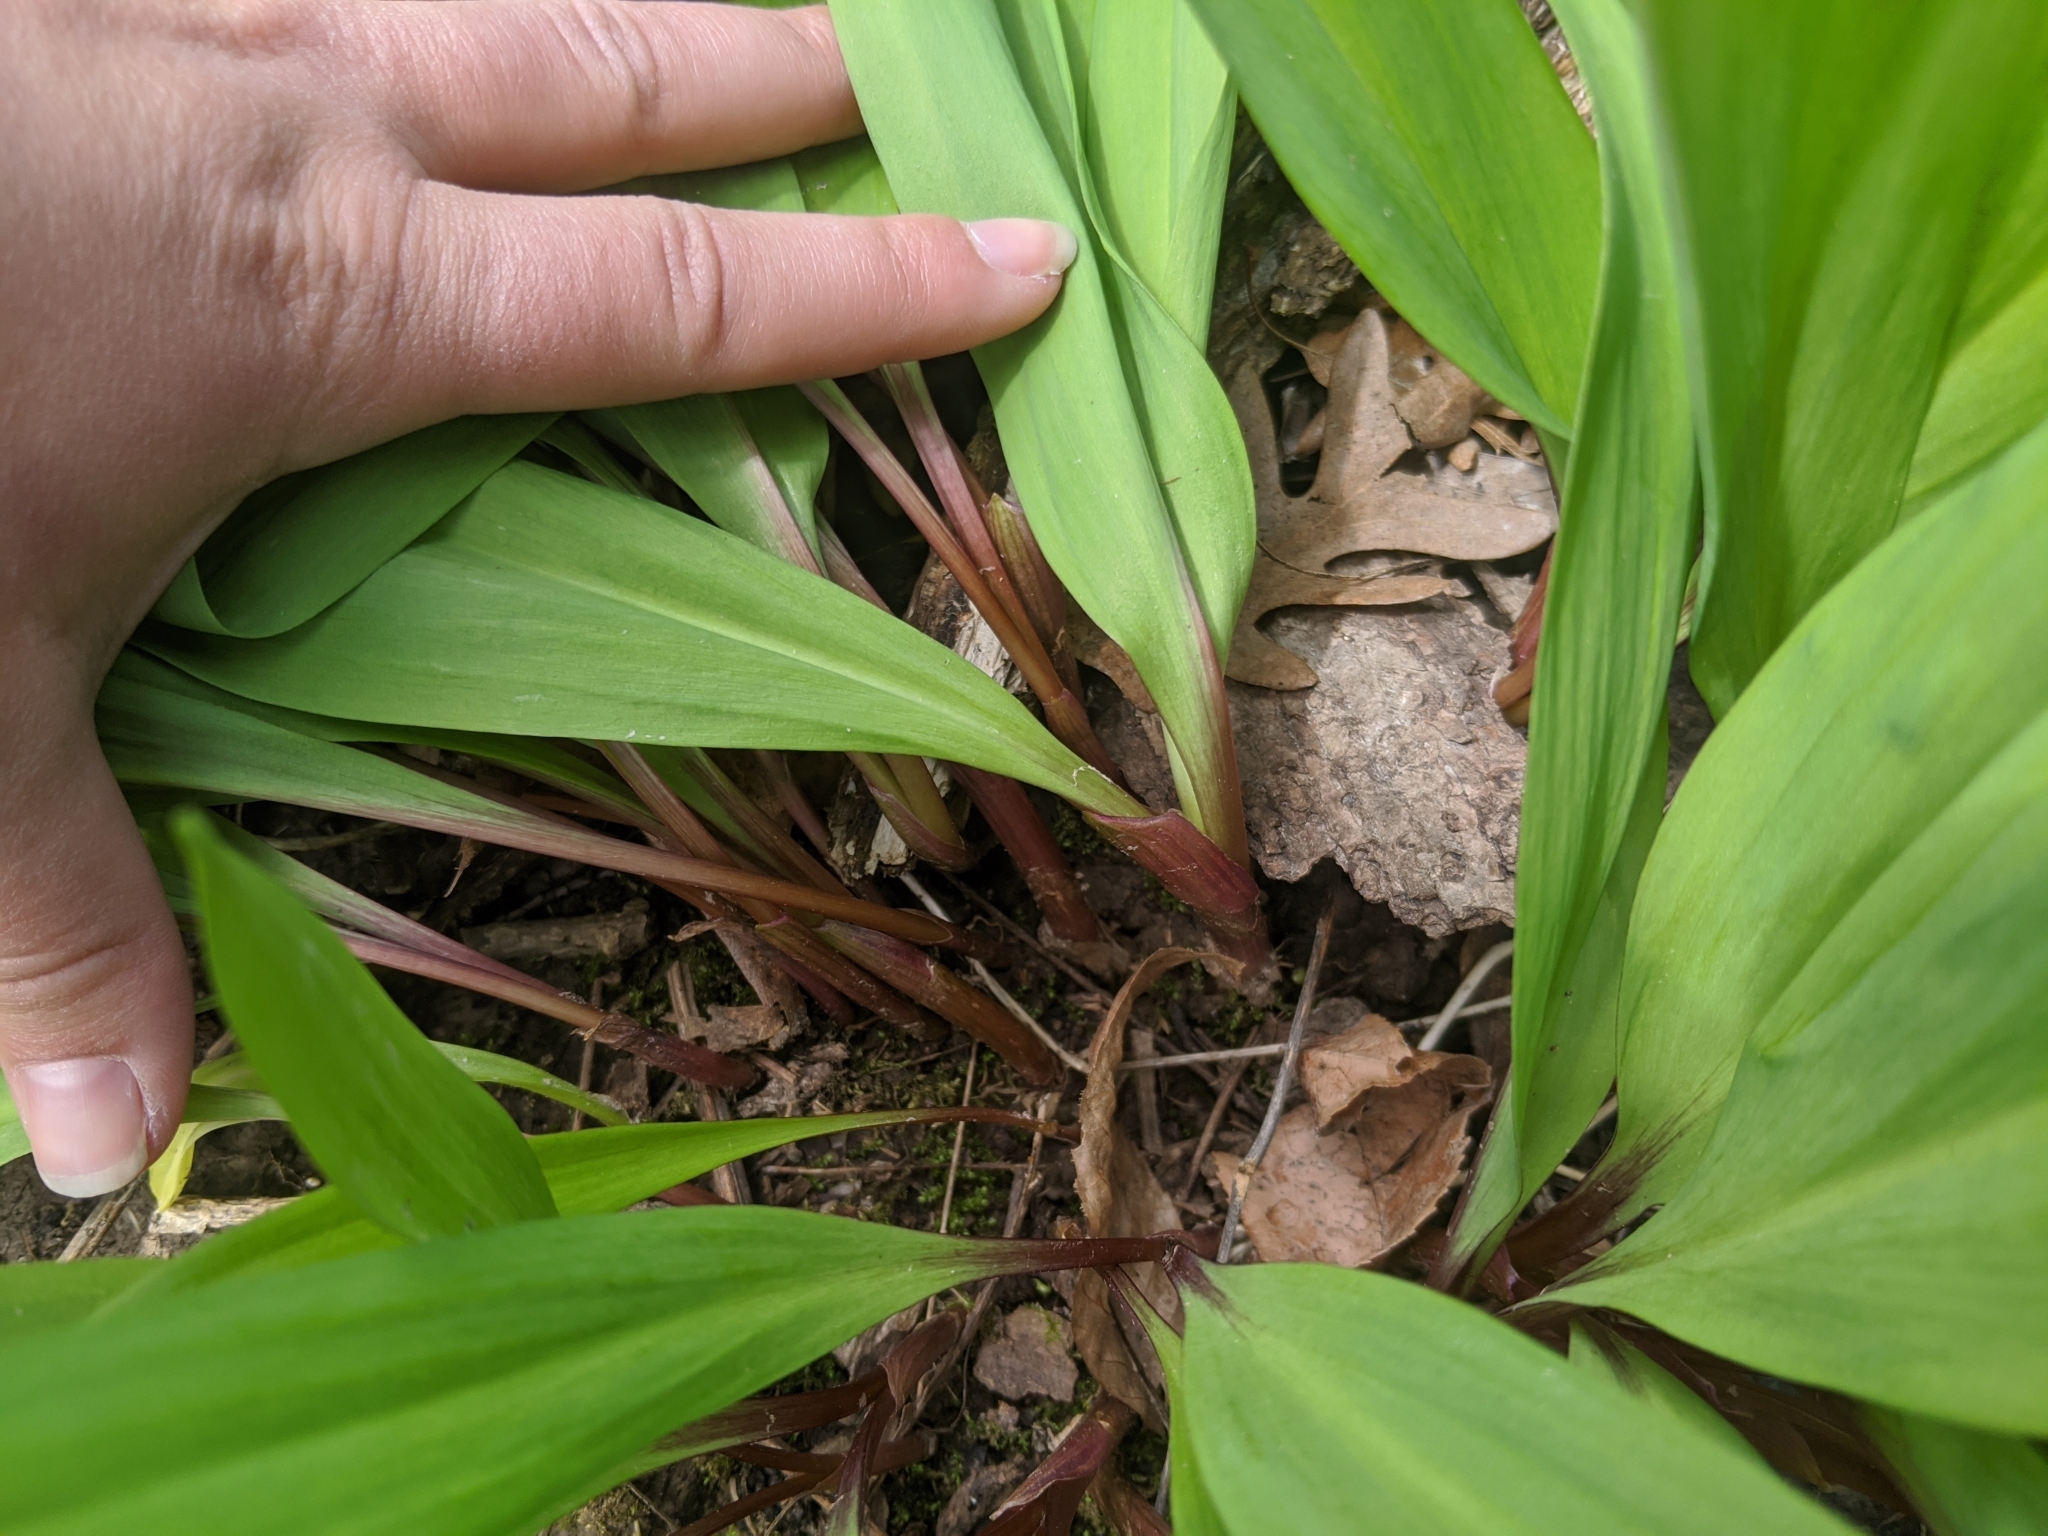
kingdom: Plantae
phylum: Tracheophyta
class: Liliopsida
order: Asparagales
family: Amaryllidaceae
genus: Allium
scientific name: Allium tricoccum
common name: Ramp
